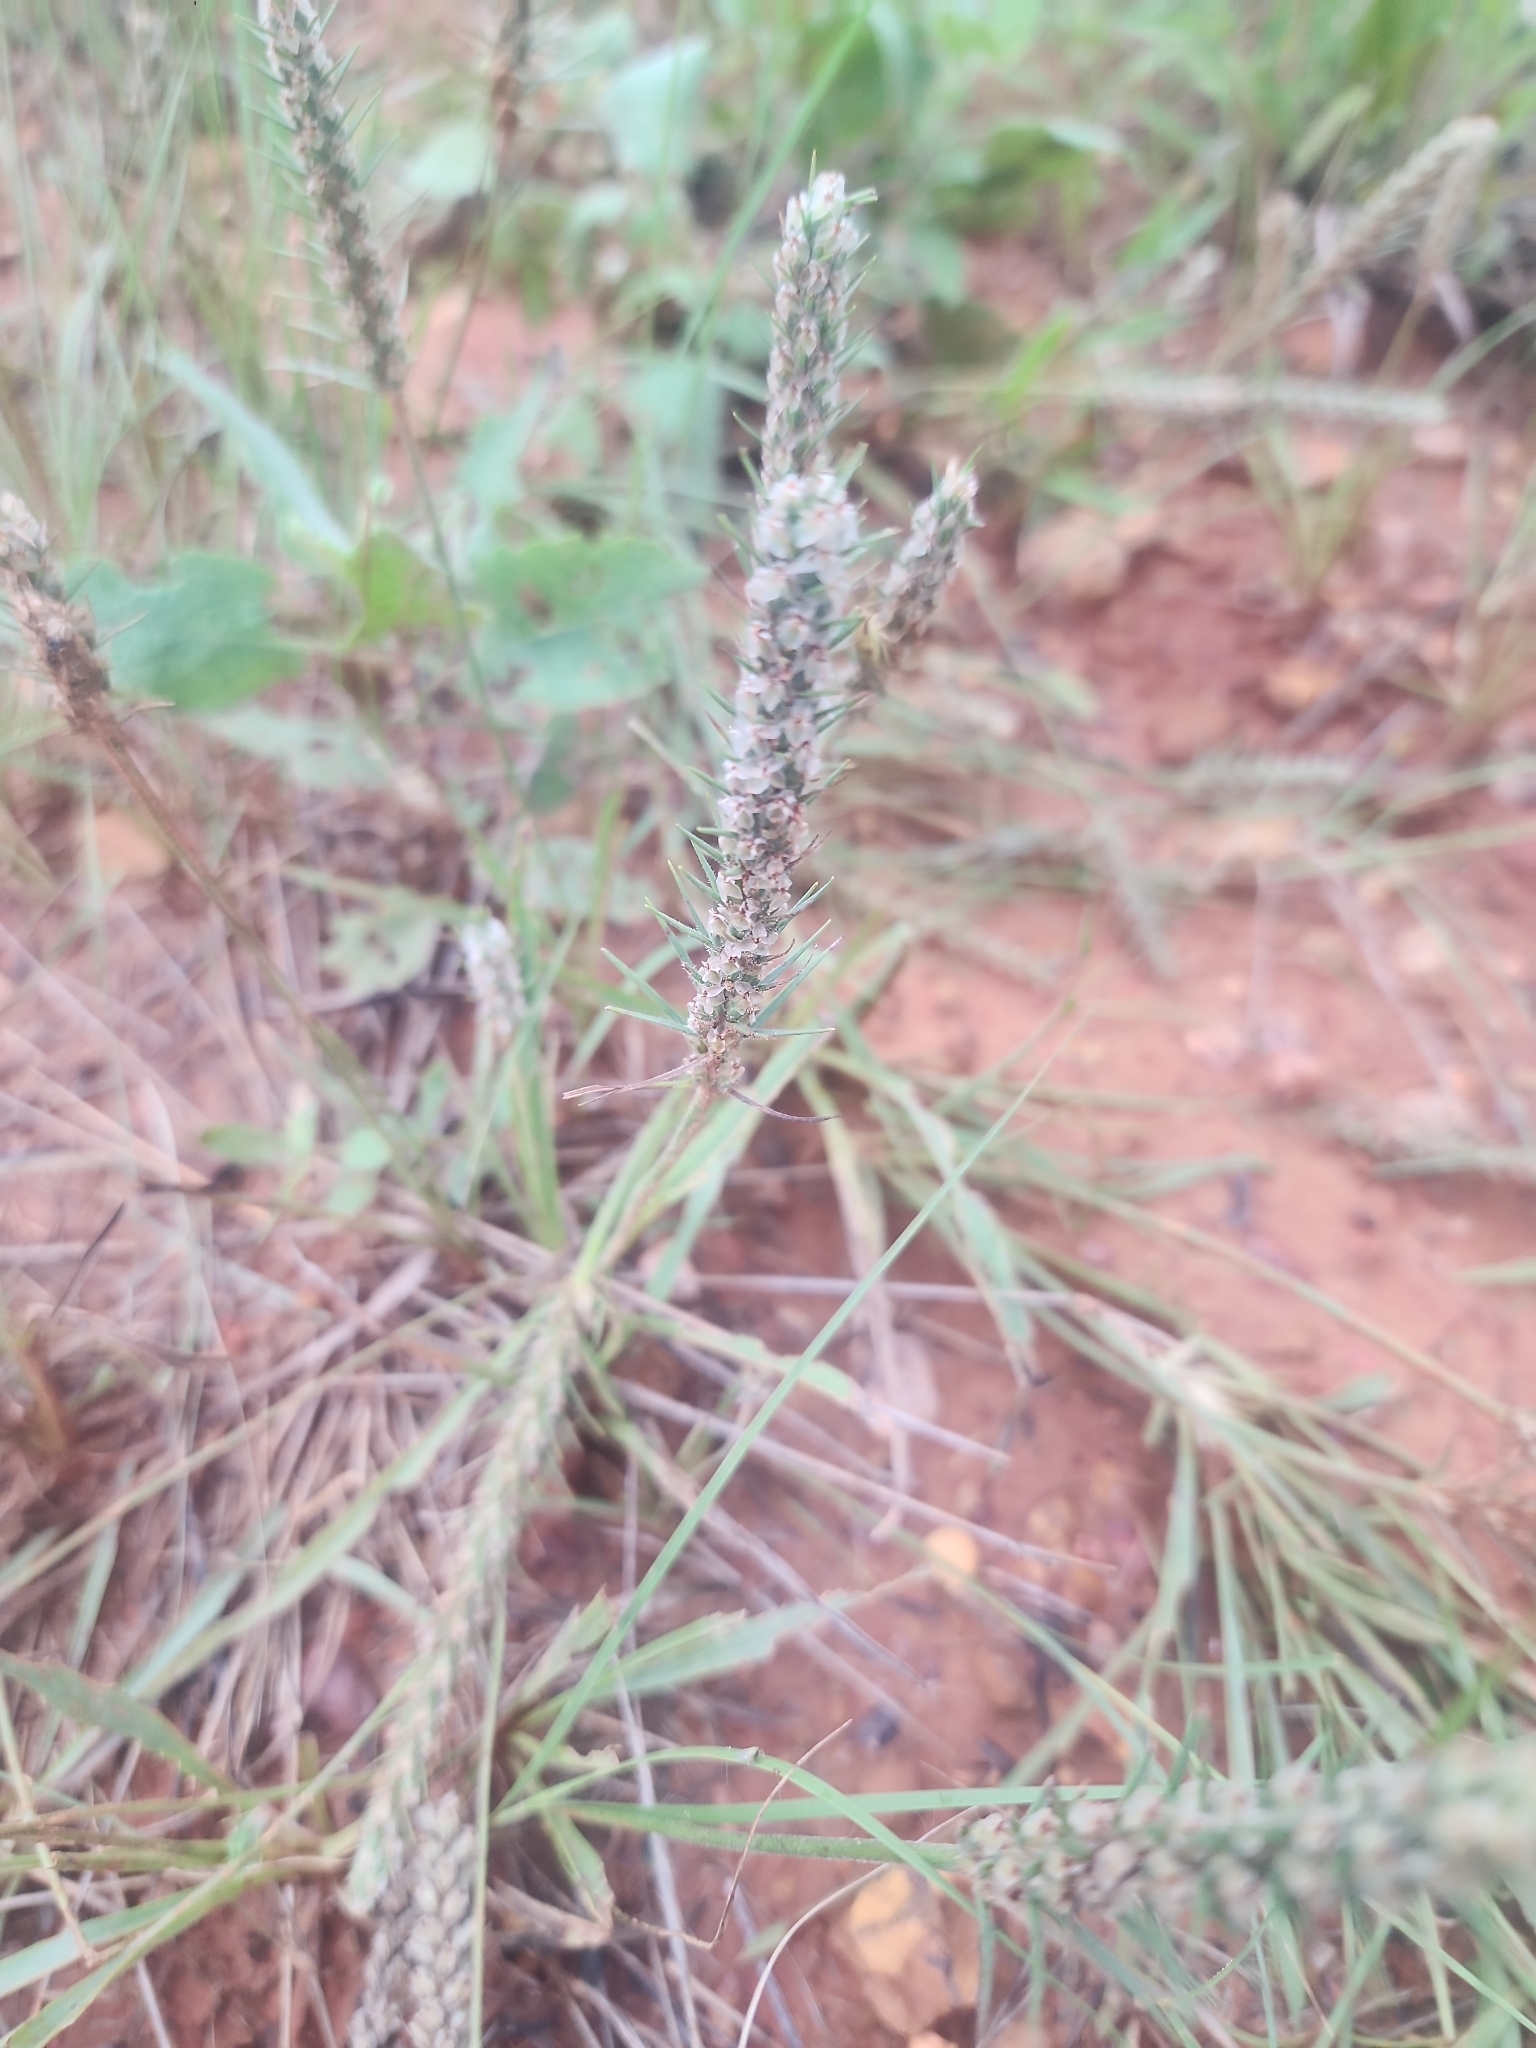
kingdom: Plantae
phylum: Tracheophyta
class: Magnoliopsida
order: Lamiales
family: Plantaginaceae
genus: Plantago
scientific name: Plantago aristata
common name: Bracted plantain
